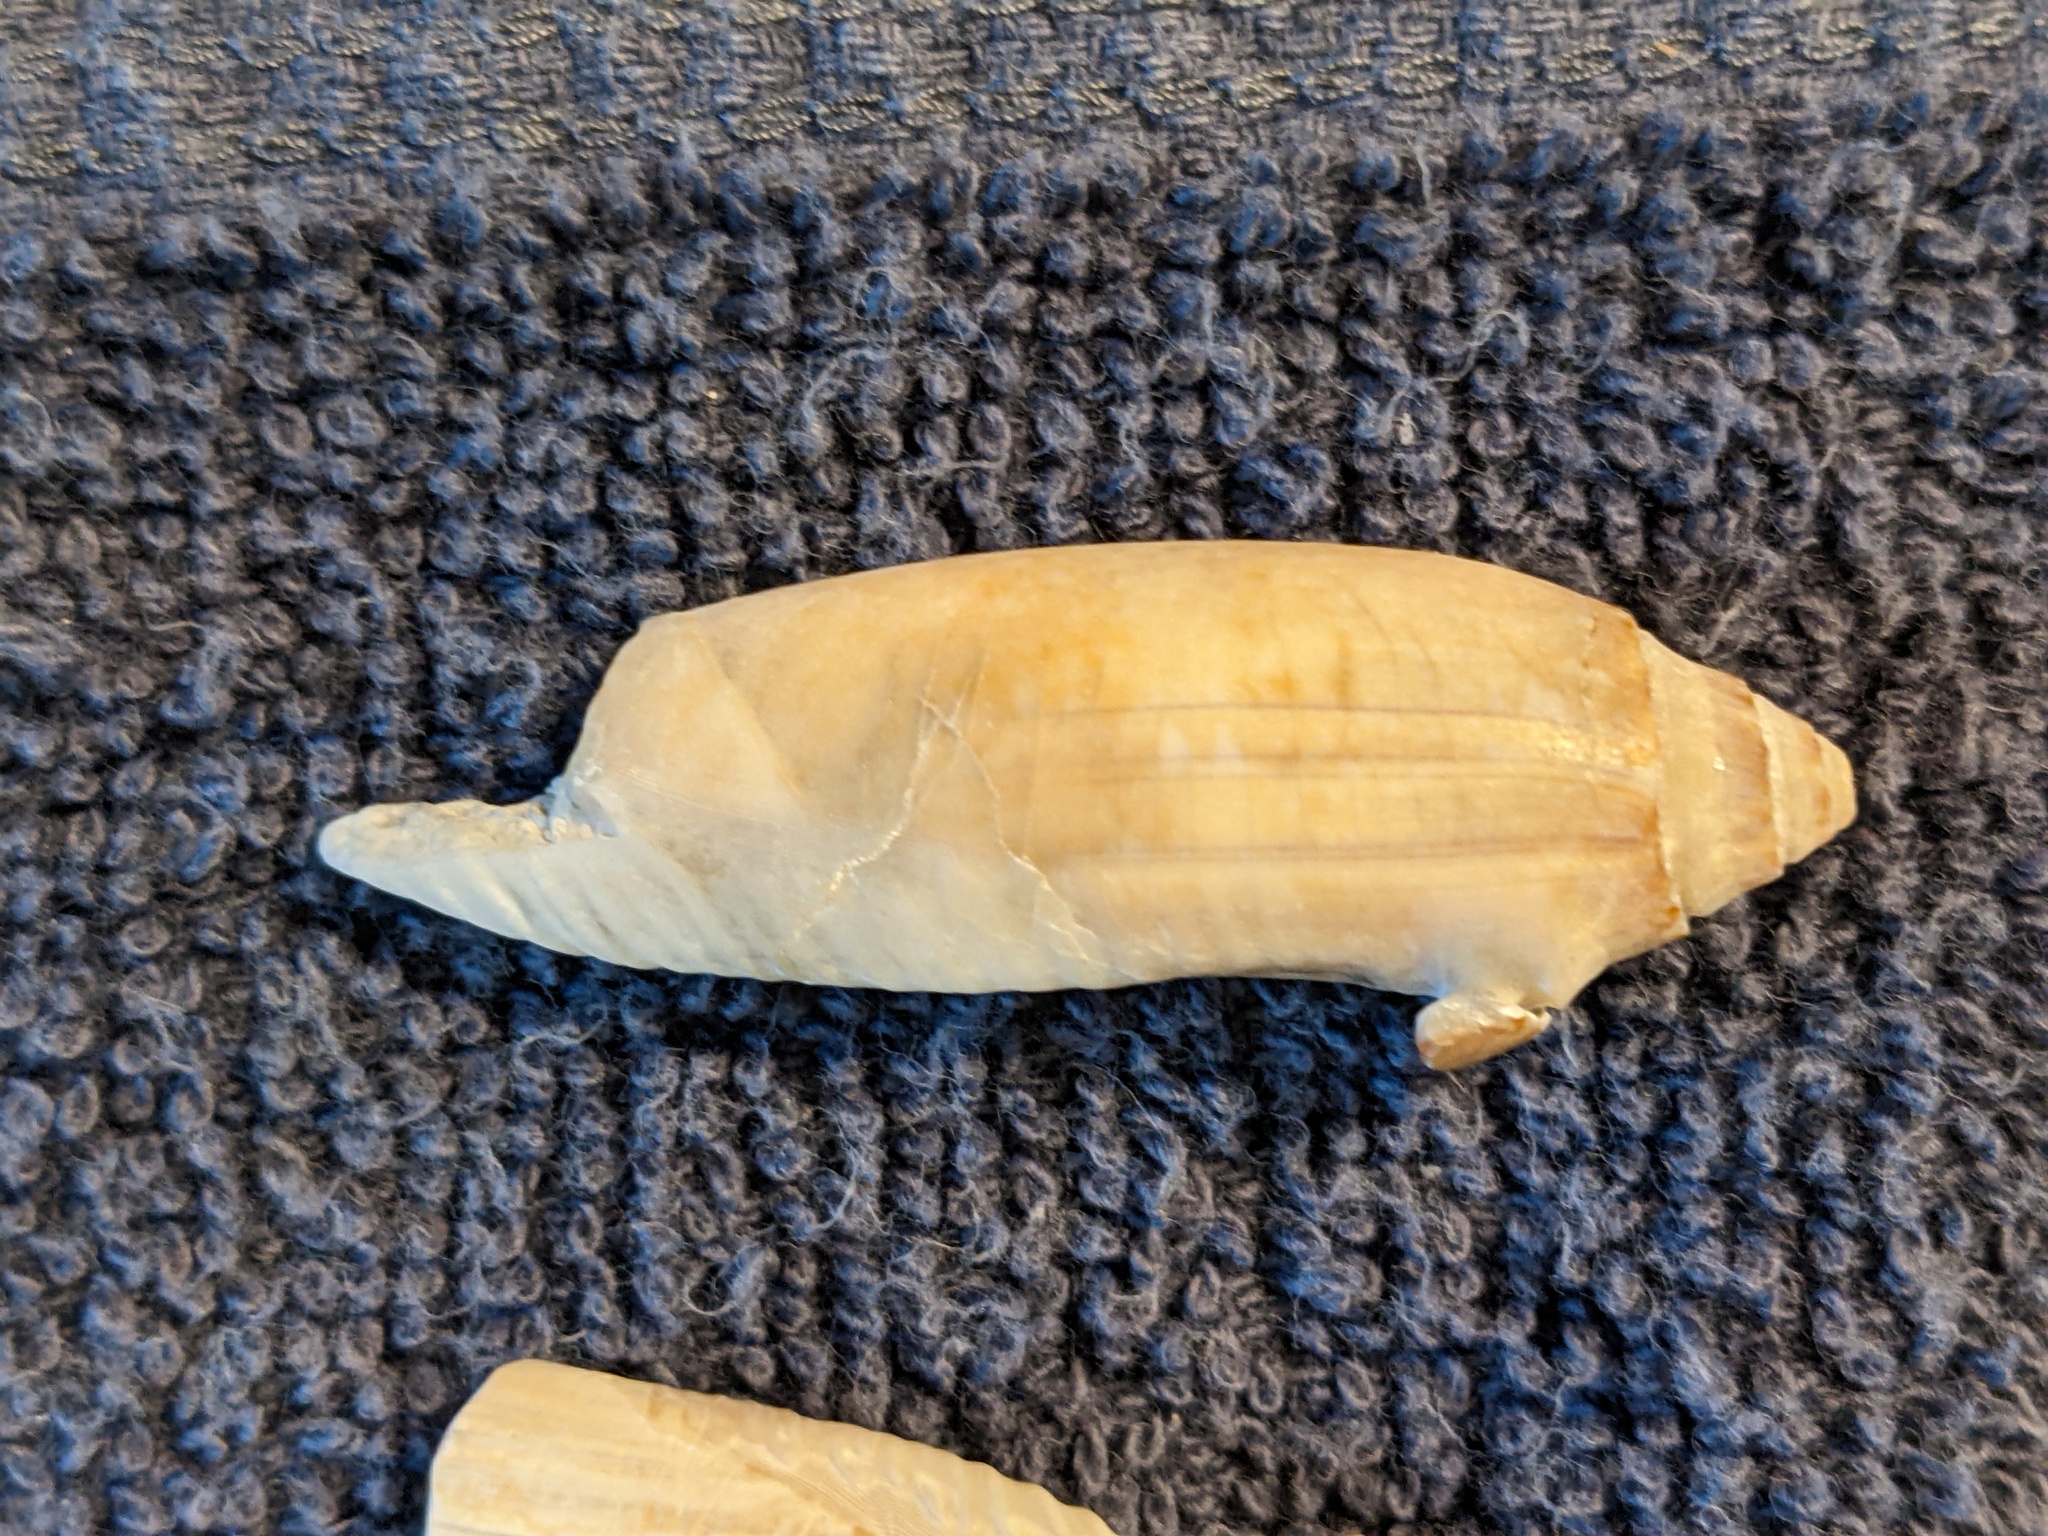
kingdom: Animalia
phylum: Mollusca
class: Gastropoda
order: Neogastropoda
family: Olividae
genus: Oliva
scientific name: Oliva sayana
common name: Lettered olive
